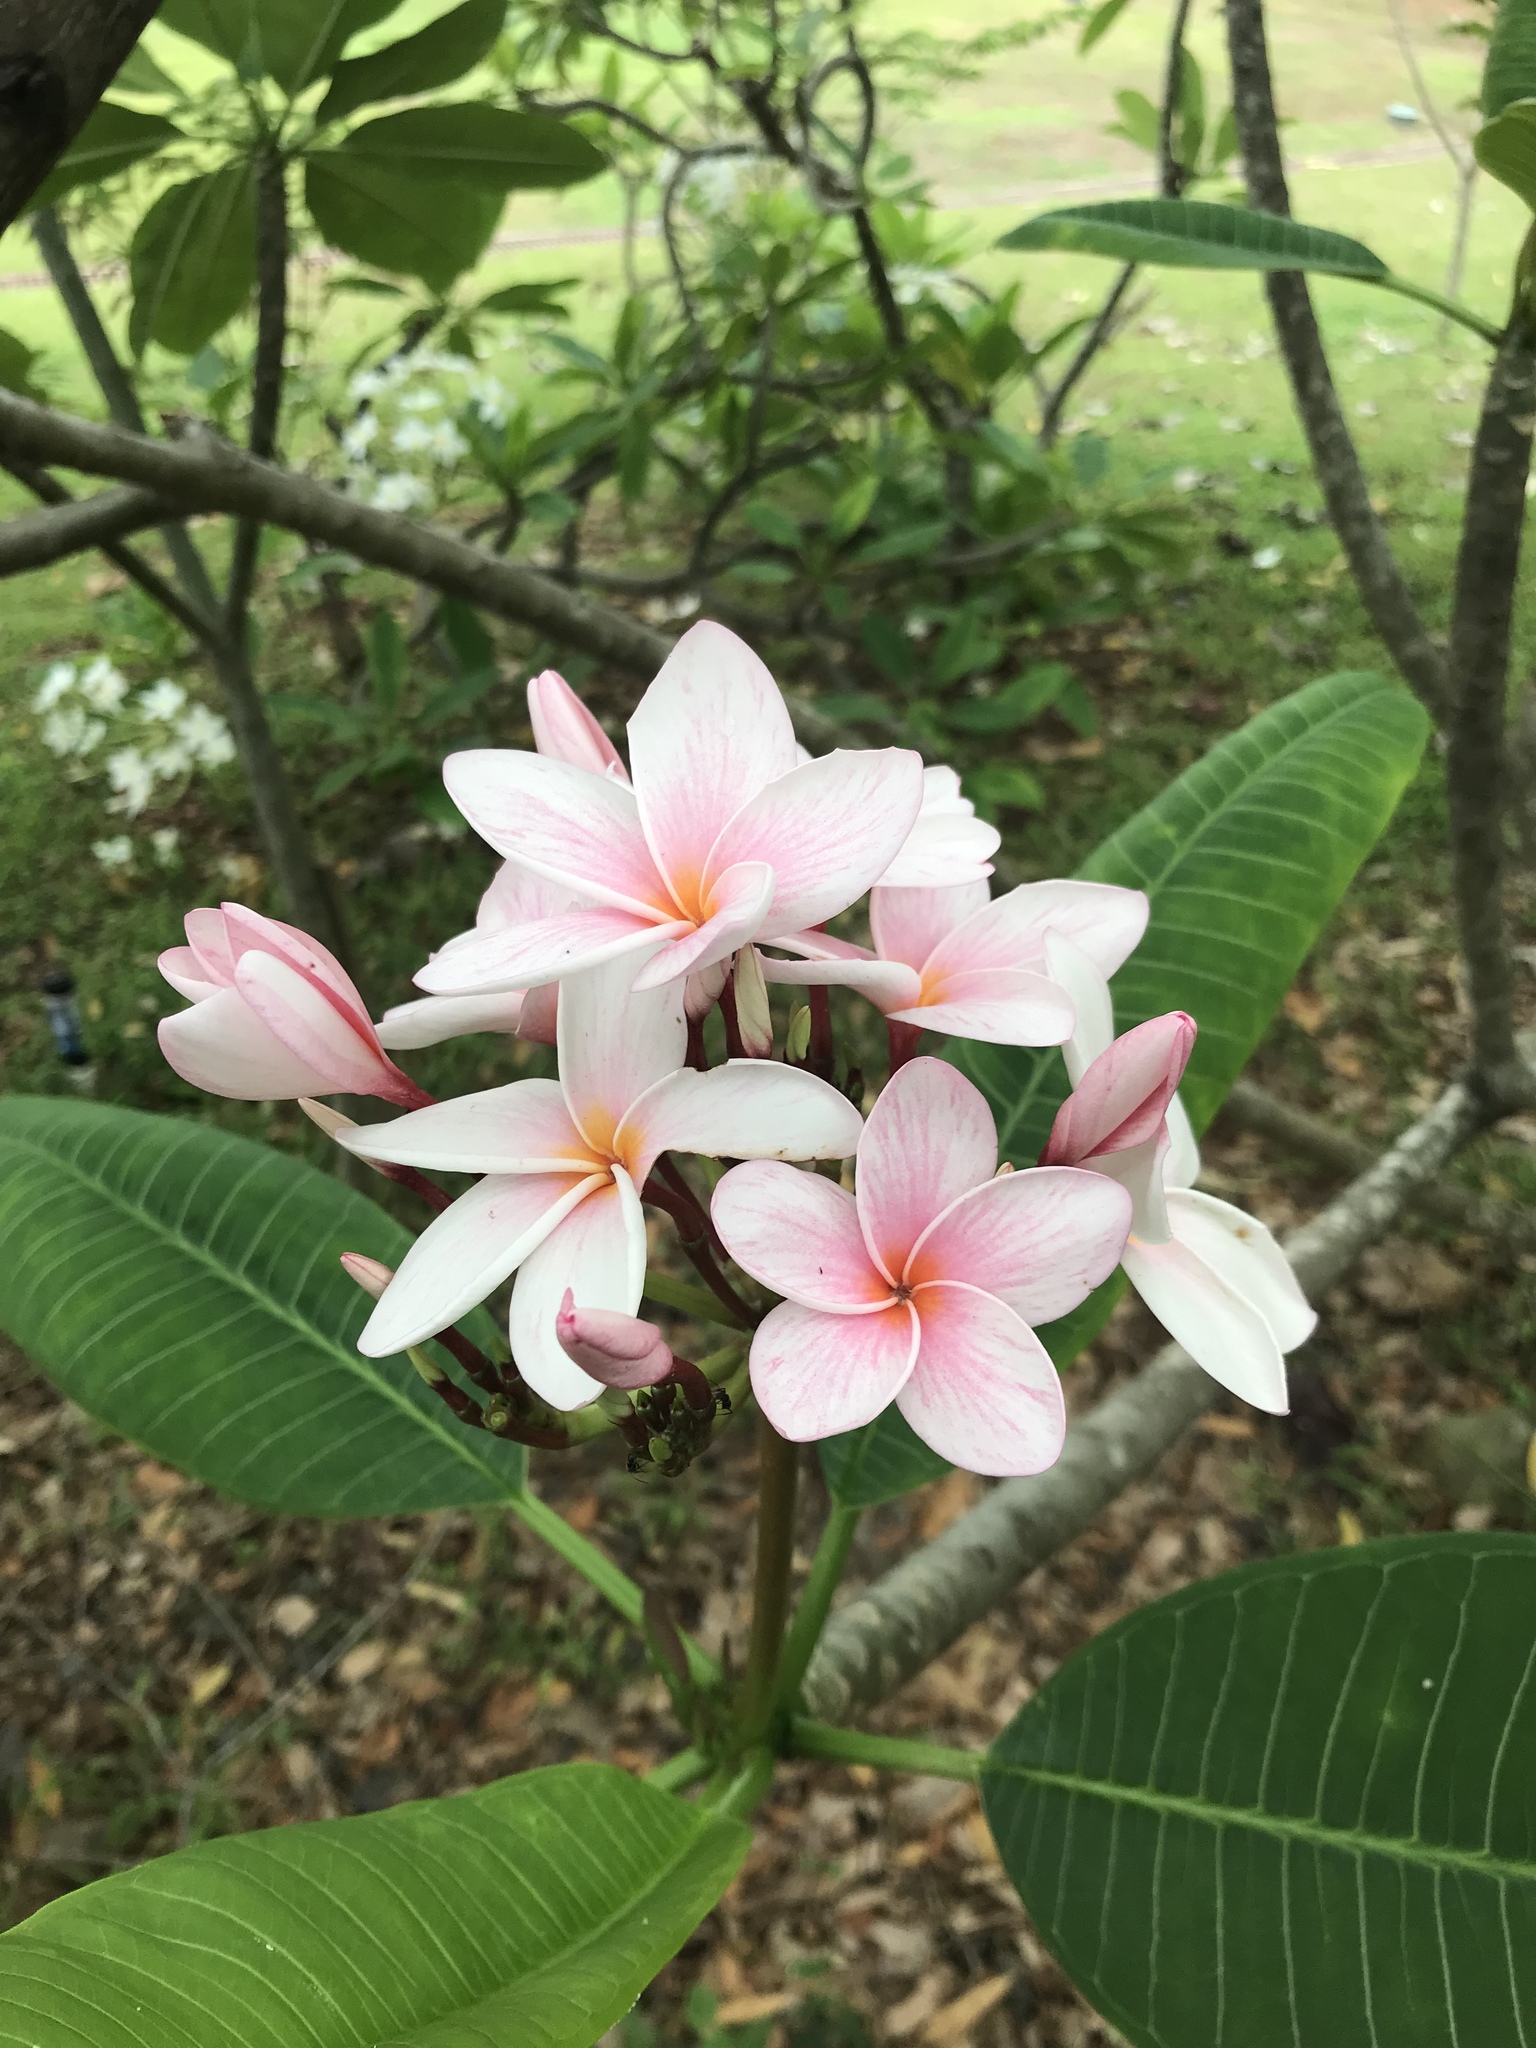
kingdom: Plantae
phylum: Tracheophyta
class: Magnoliopsida
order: Gentianales
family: Apocynaceae
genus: Plumeria
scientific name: Plumeria rubra
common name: Pagoda-tree
